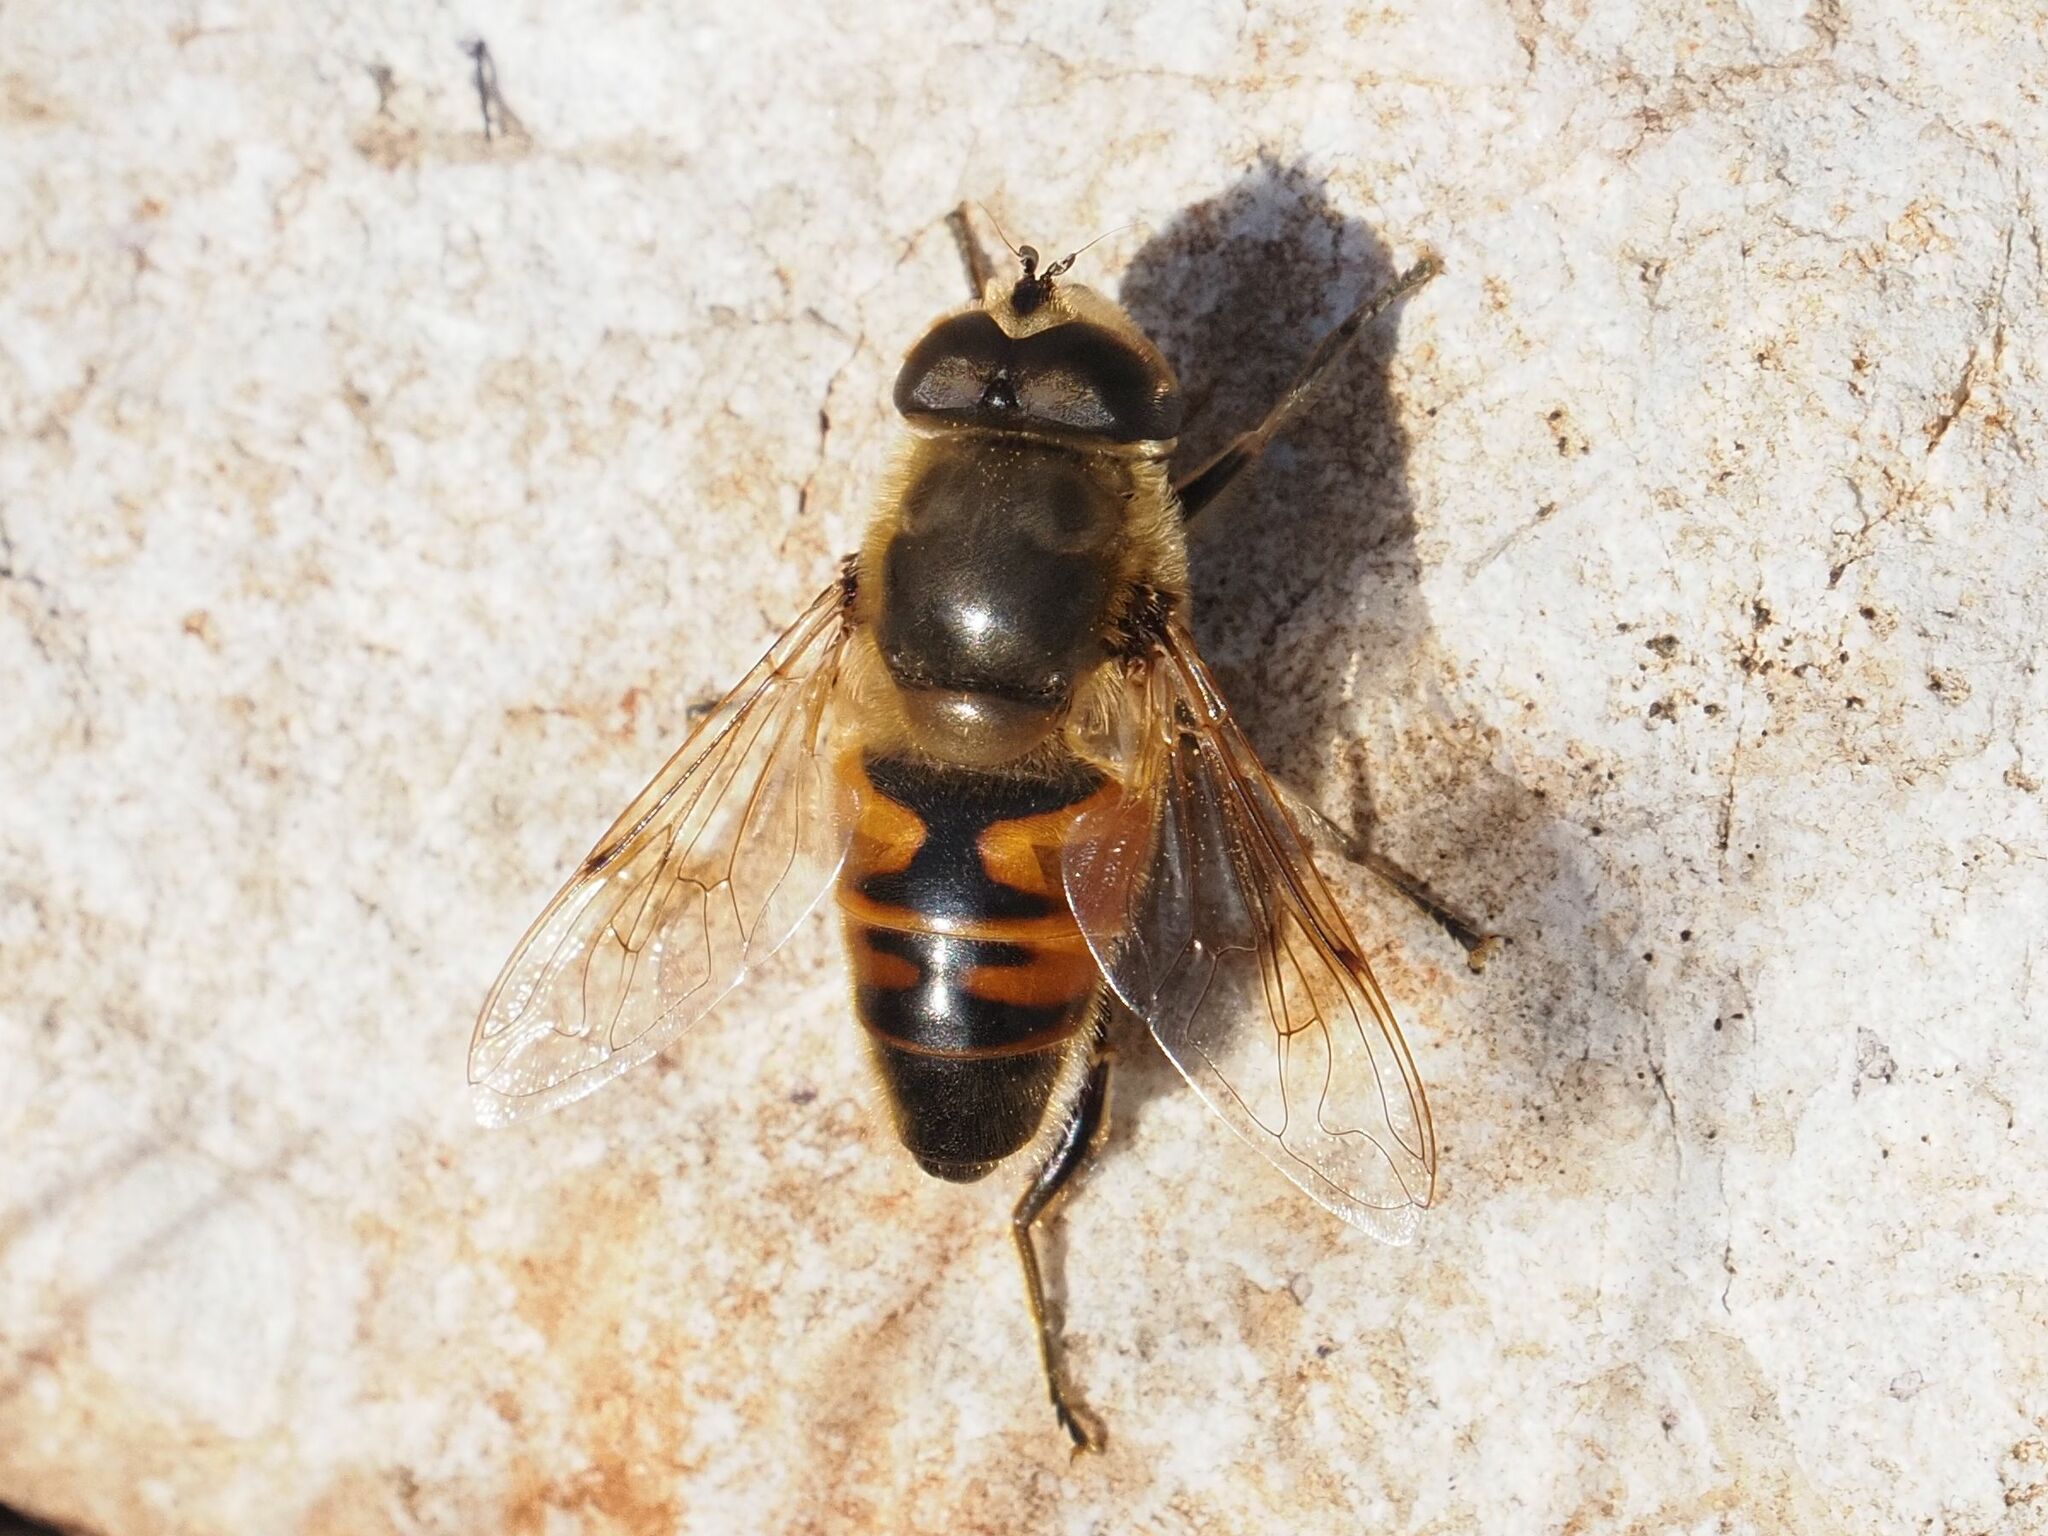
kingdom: Animalia
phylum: Arthropoda
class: Insecta
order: Diptera
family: Syrphidae
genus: Eristalis
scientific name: Eristalis tenax
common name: Drone fly
